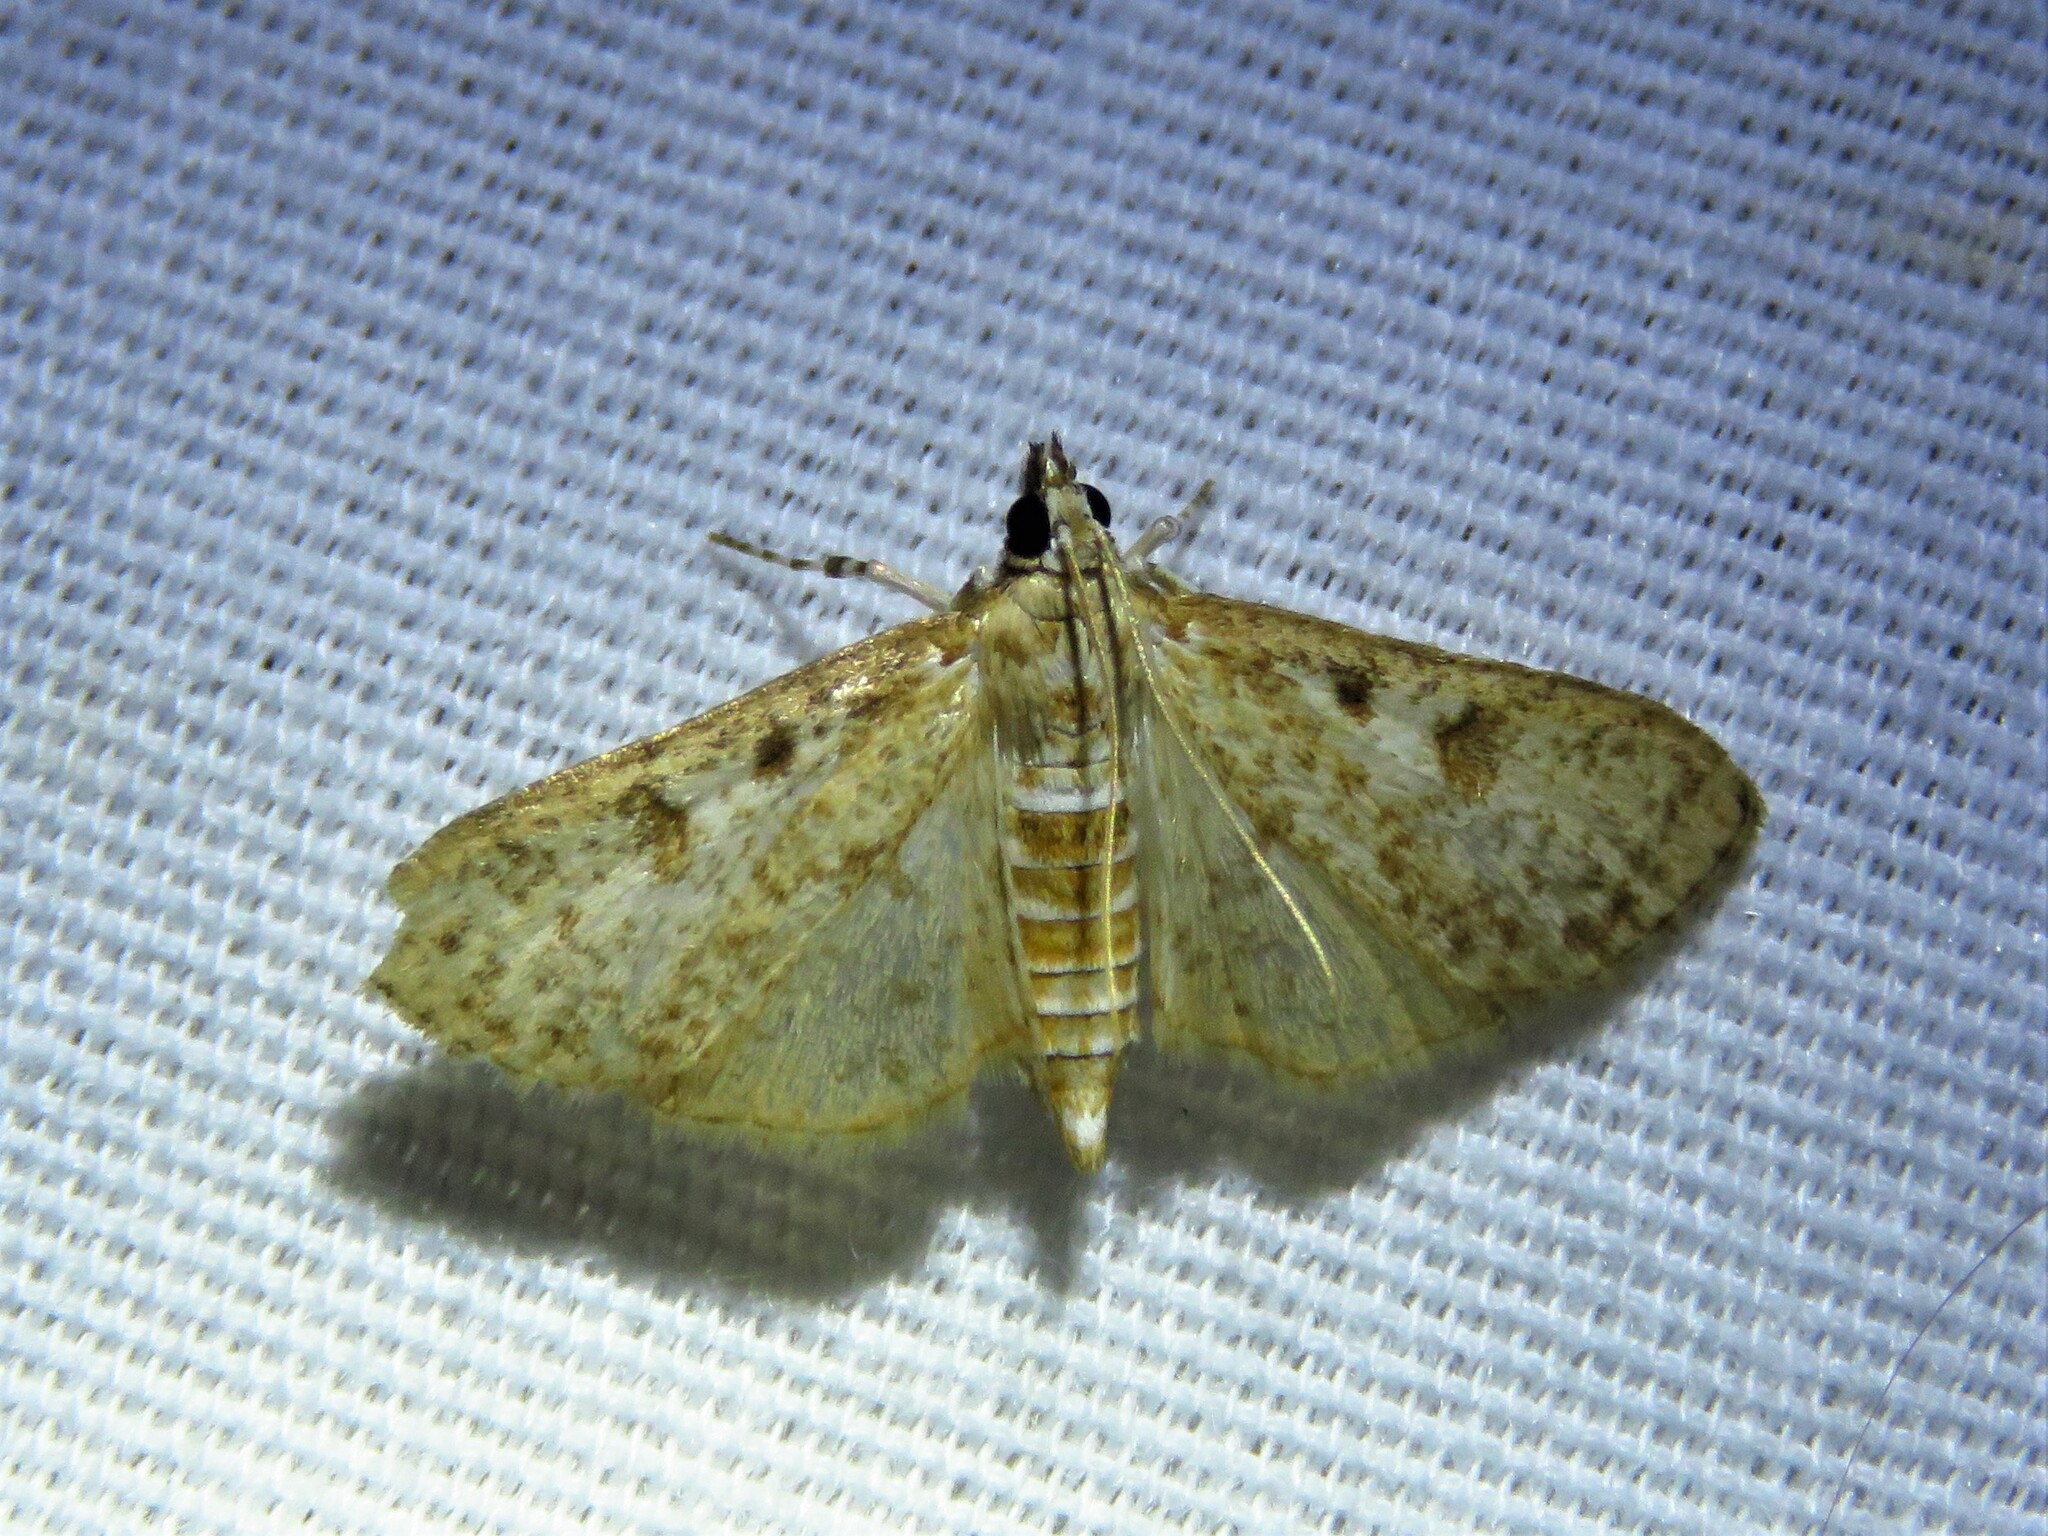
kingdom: Animalia
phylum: Arthropoda
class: Insecta
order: Lepidoptera
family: Crambidae
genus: Palpita
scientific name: Palpita freemanalis
